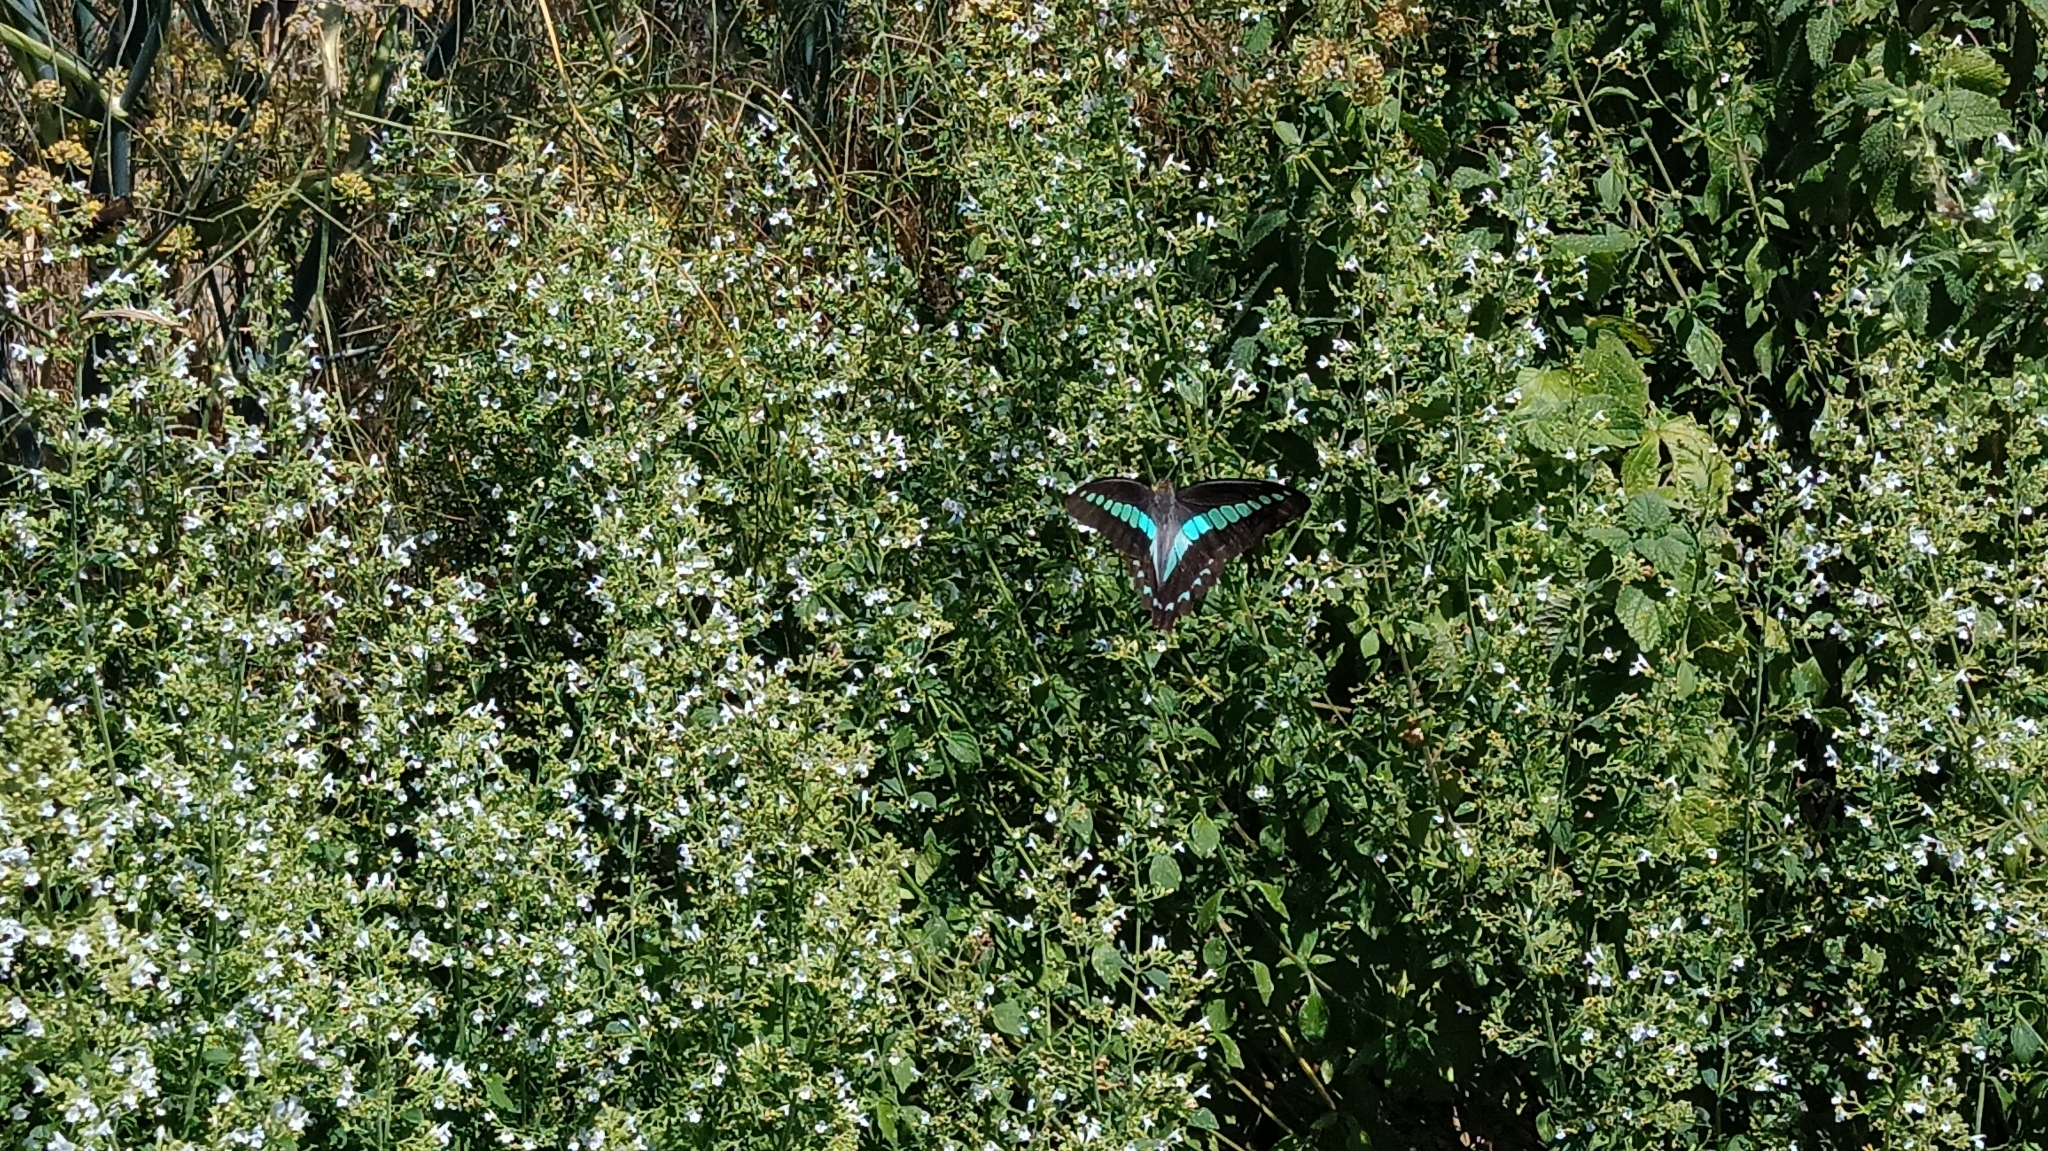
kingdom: Fungi
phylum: Ascomycota
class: Sordariomycetes
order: Microascales
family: Microascaceae
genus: Graphium
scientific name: Graphium sarpedon
